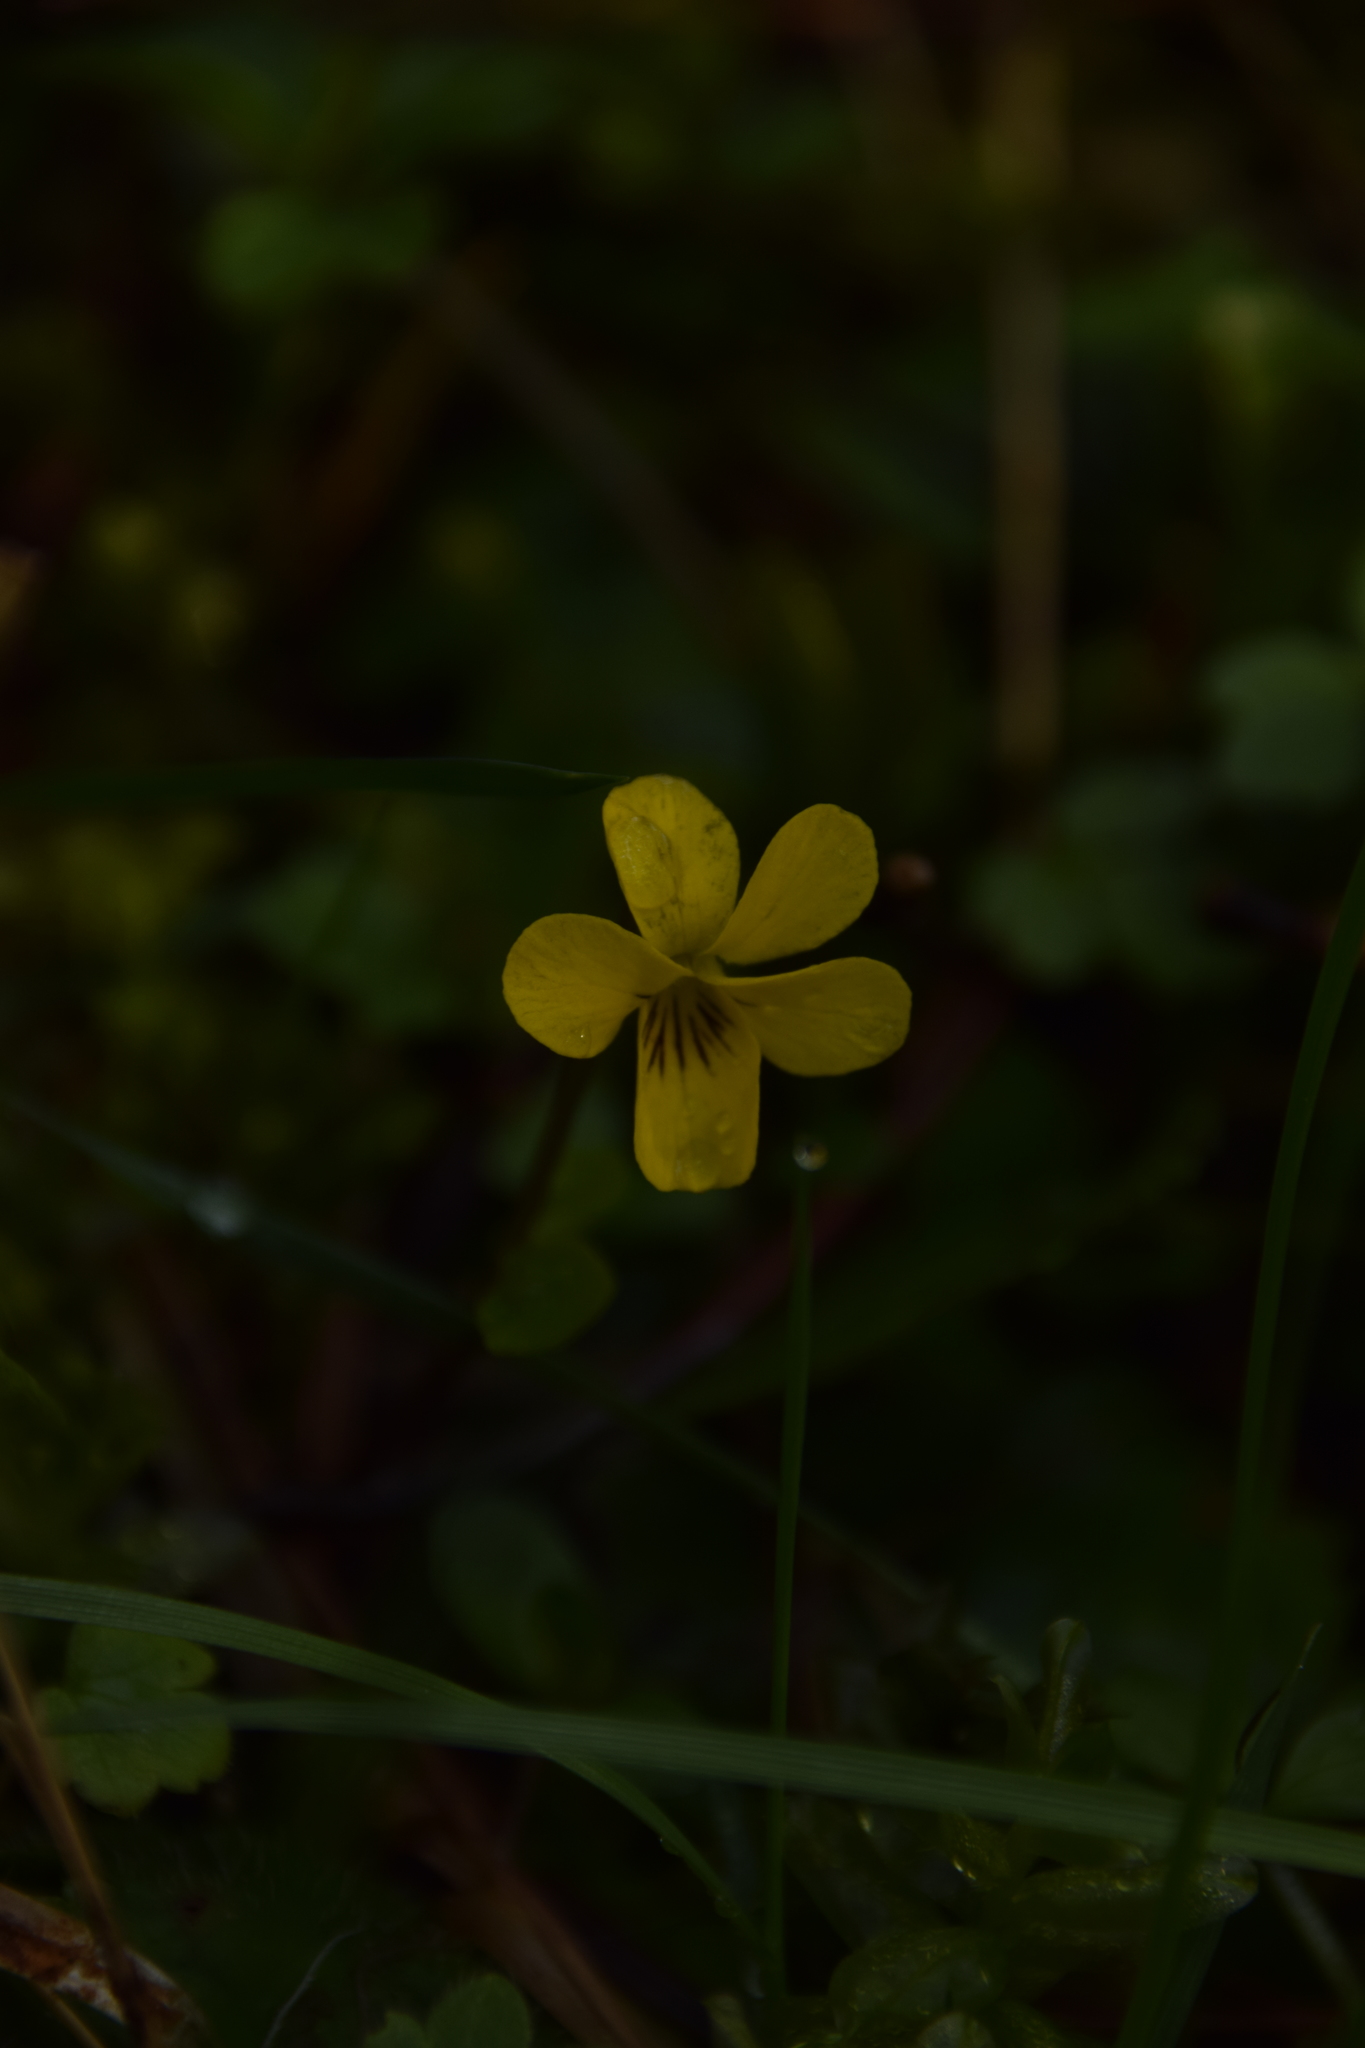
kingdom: Plantae
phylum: Tracheophyta
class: Magnoliopsida
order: Malpighiales
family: Violaceae
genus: Viola
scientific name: Viola orbiculata
